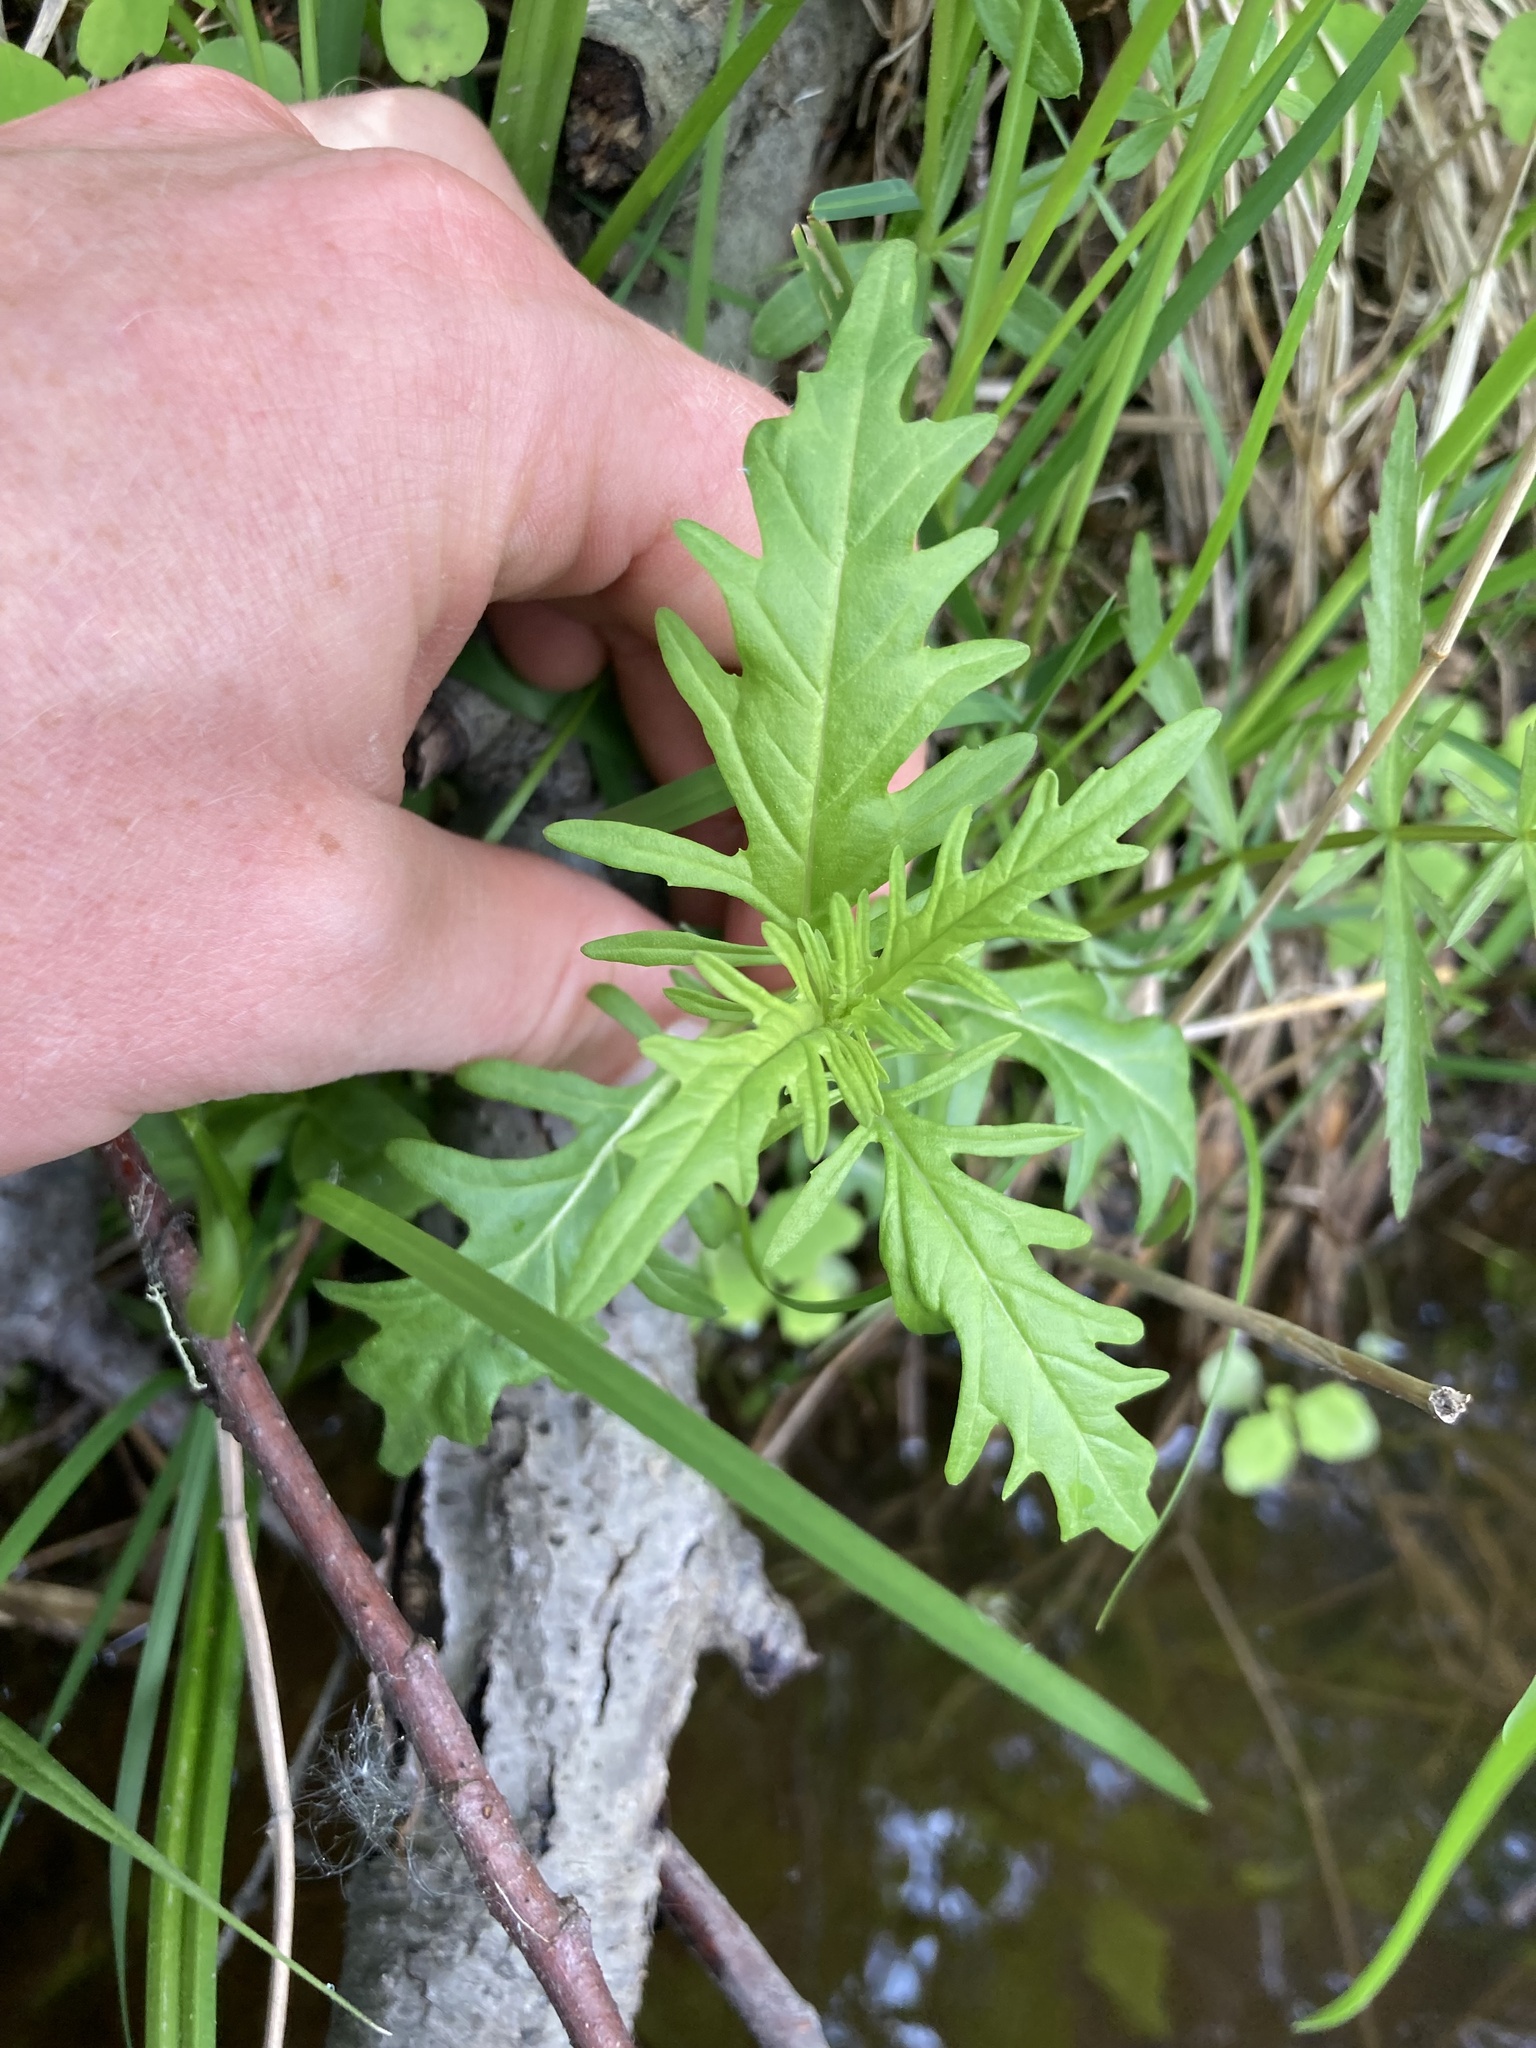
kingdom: Plantae
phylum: Tracheophyta
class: Magnoliopsida
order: Lamiales
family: Lamiaceae
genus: Lycopus
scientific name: Lycopus americanus
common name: American bugleweed
